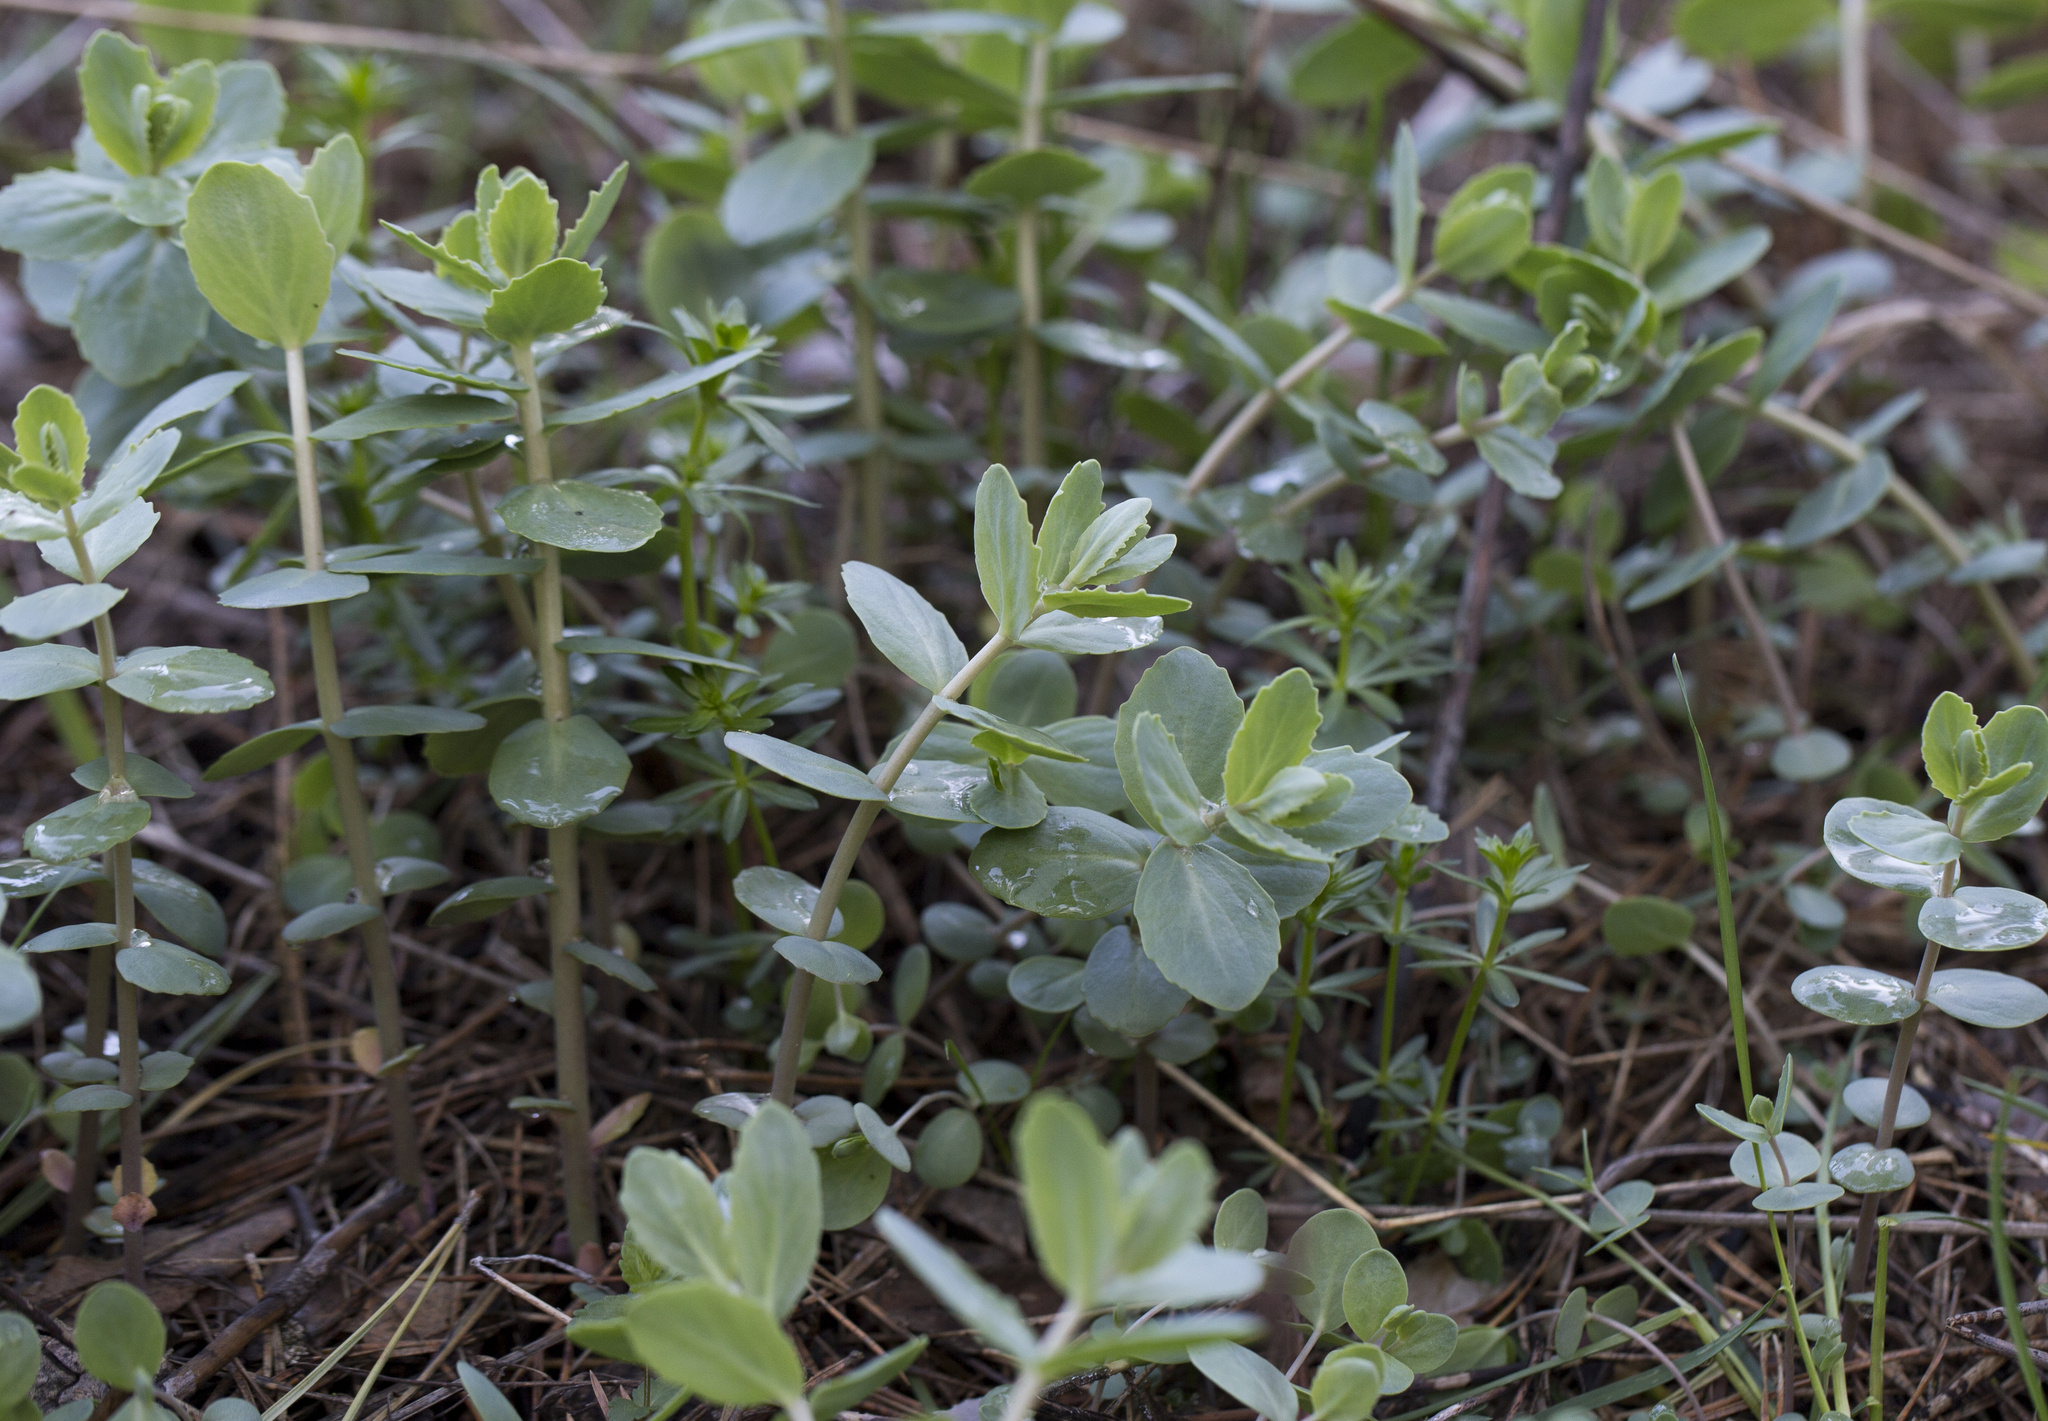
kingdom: Plantae
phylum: Tracheophyta
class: Magnoliopsida
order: Saxifragales
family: Crassulaceae
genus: Hylotelephium
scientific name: Hylotelephium maximum
